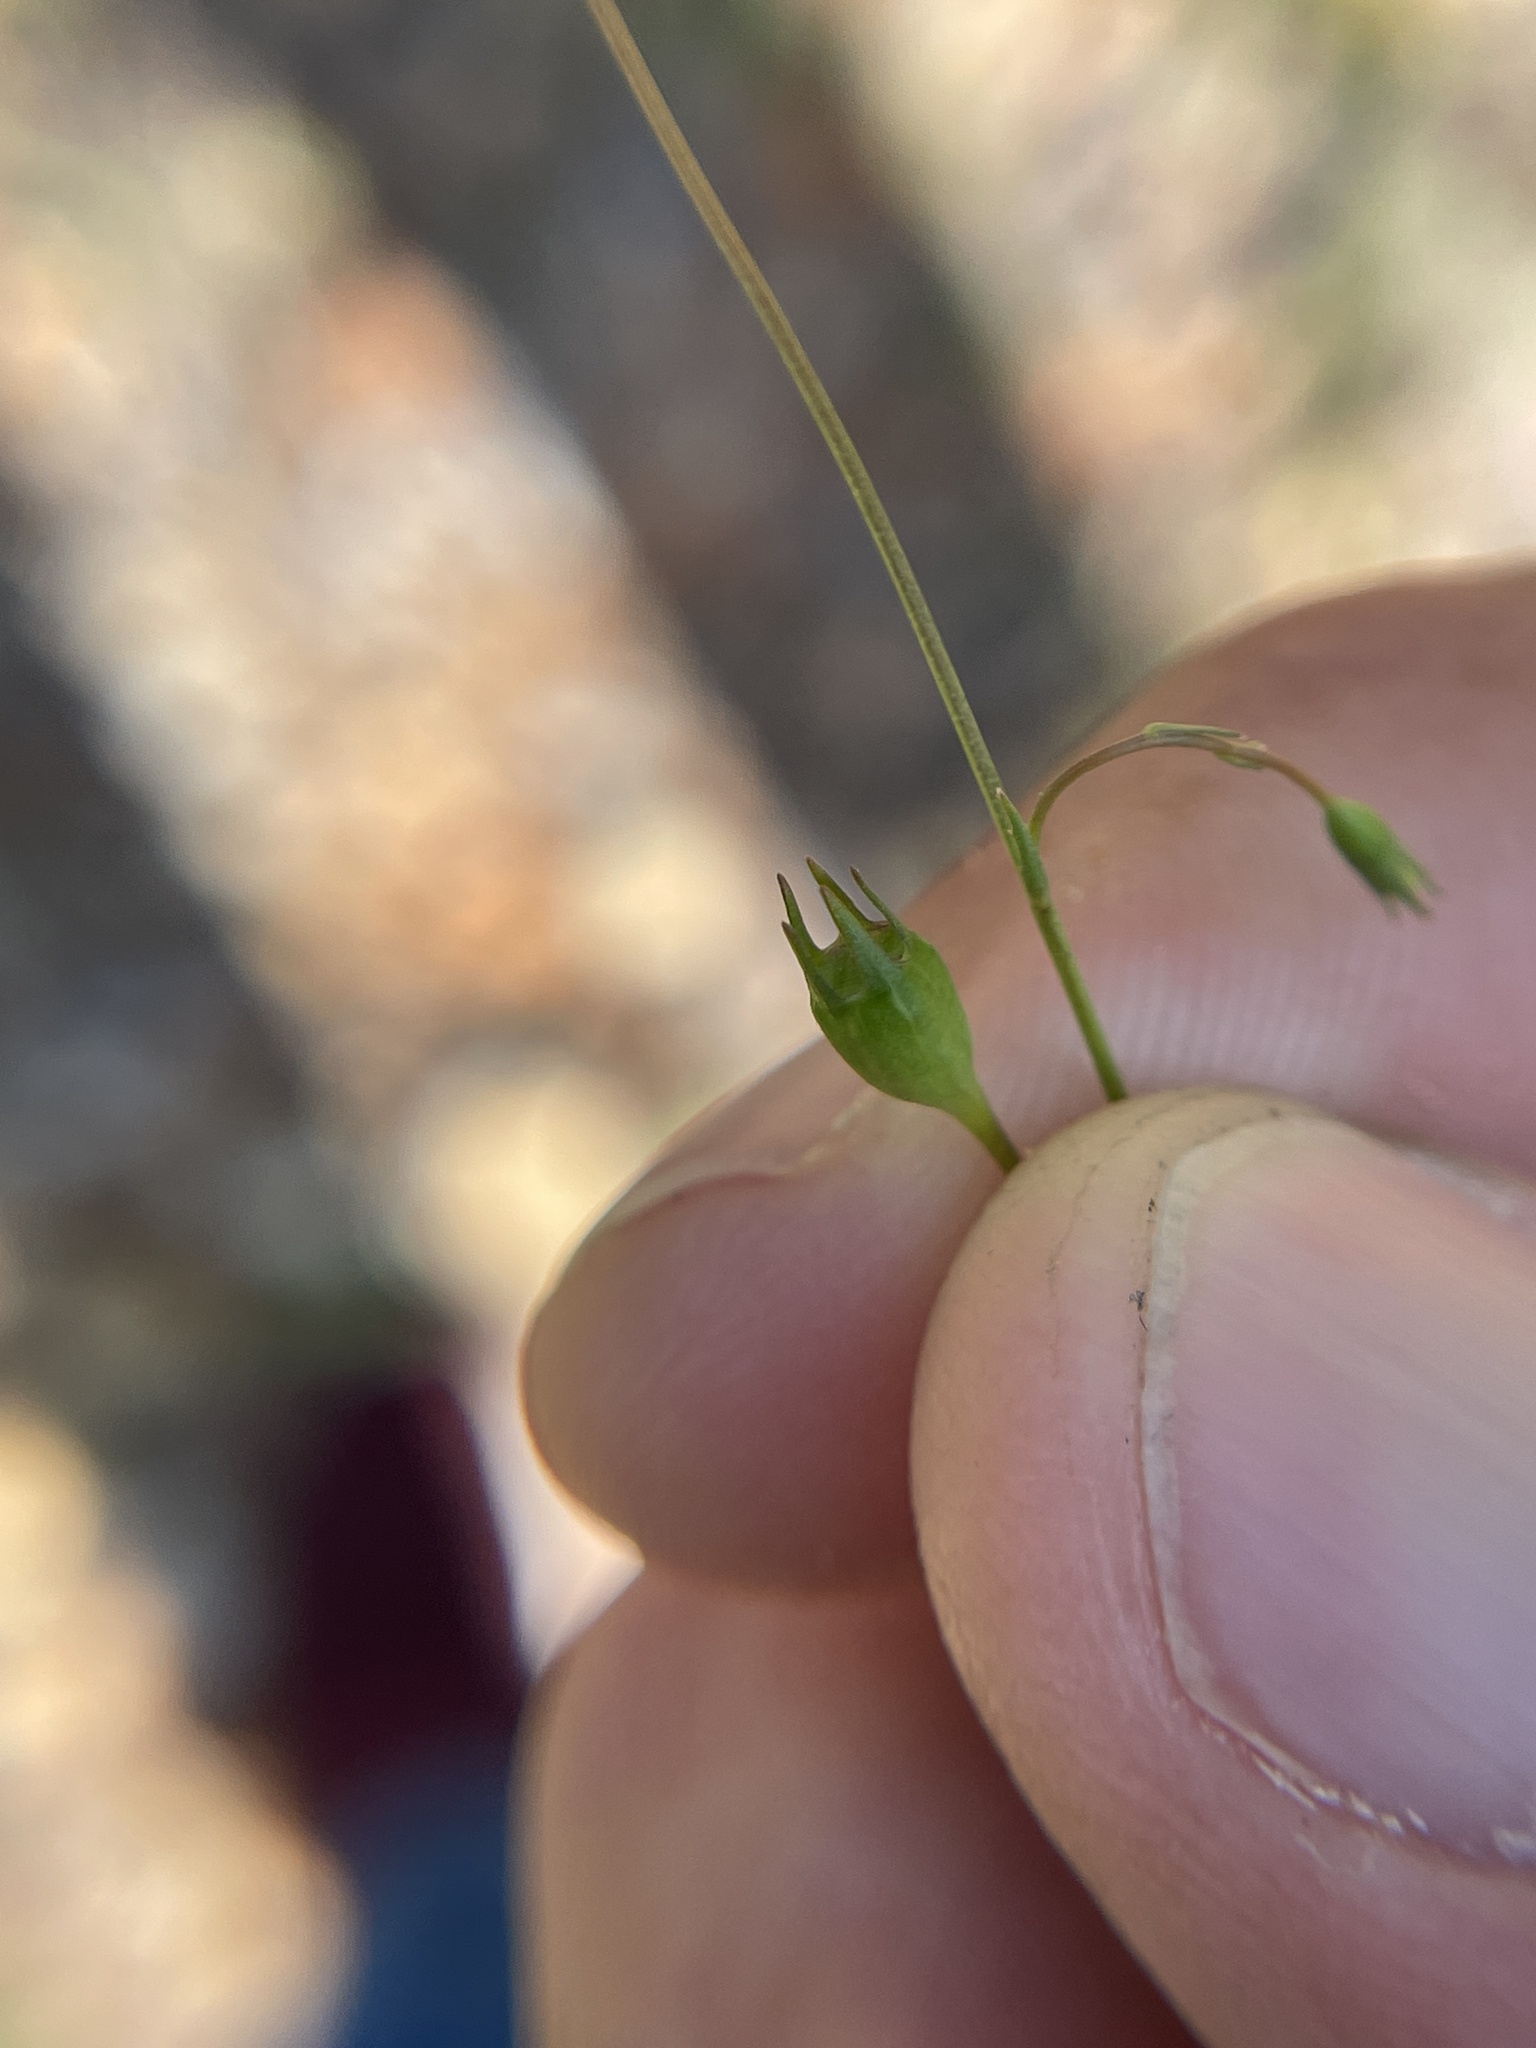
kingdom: Plantae
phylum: Tracheophyta
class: Magnoliopsida
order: Asterales
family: Campanulaceae
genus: Wahlenbergia
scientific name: Wahlenbergia marginata
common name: Southern rockbell
